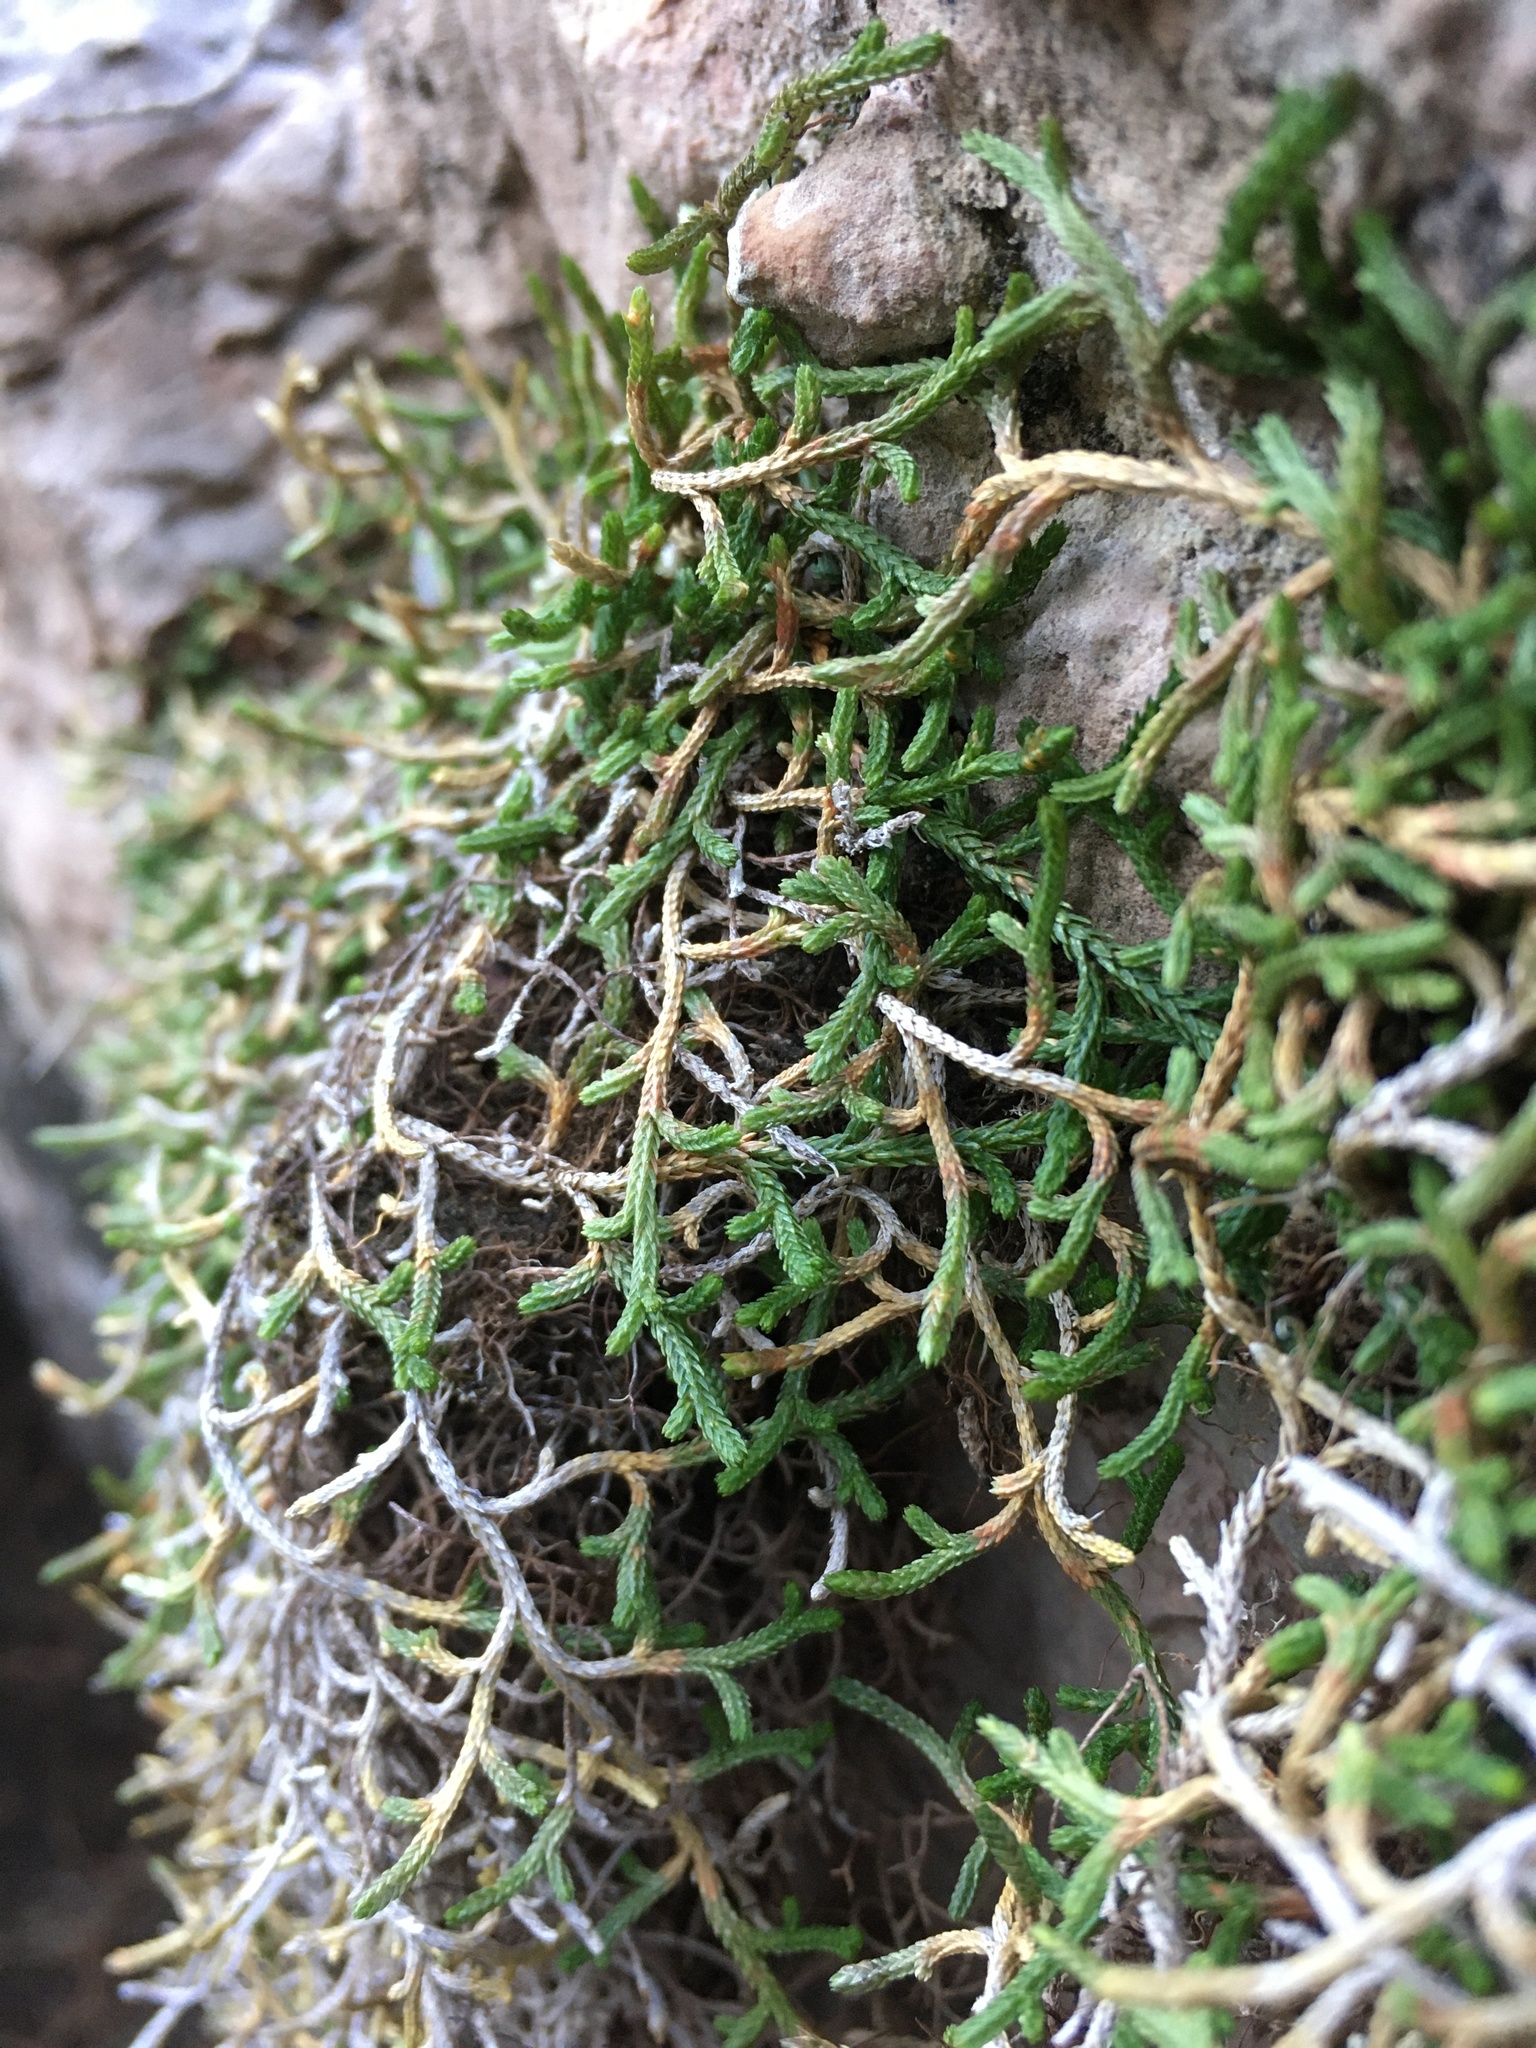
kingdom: Plantae
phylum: Tracheophyta
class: Lycopodiopsida
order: Selaginellales
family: Selaginellaceae
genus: Selaginella
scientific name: Selaginella mutica
